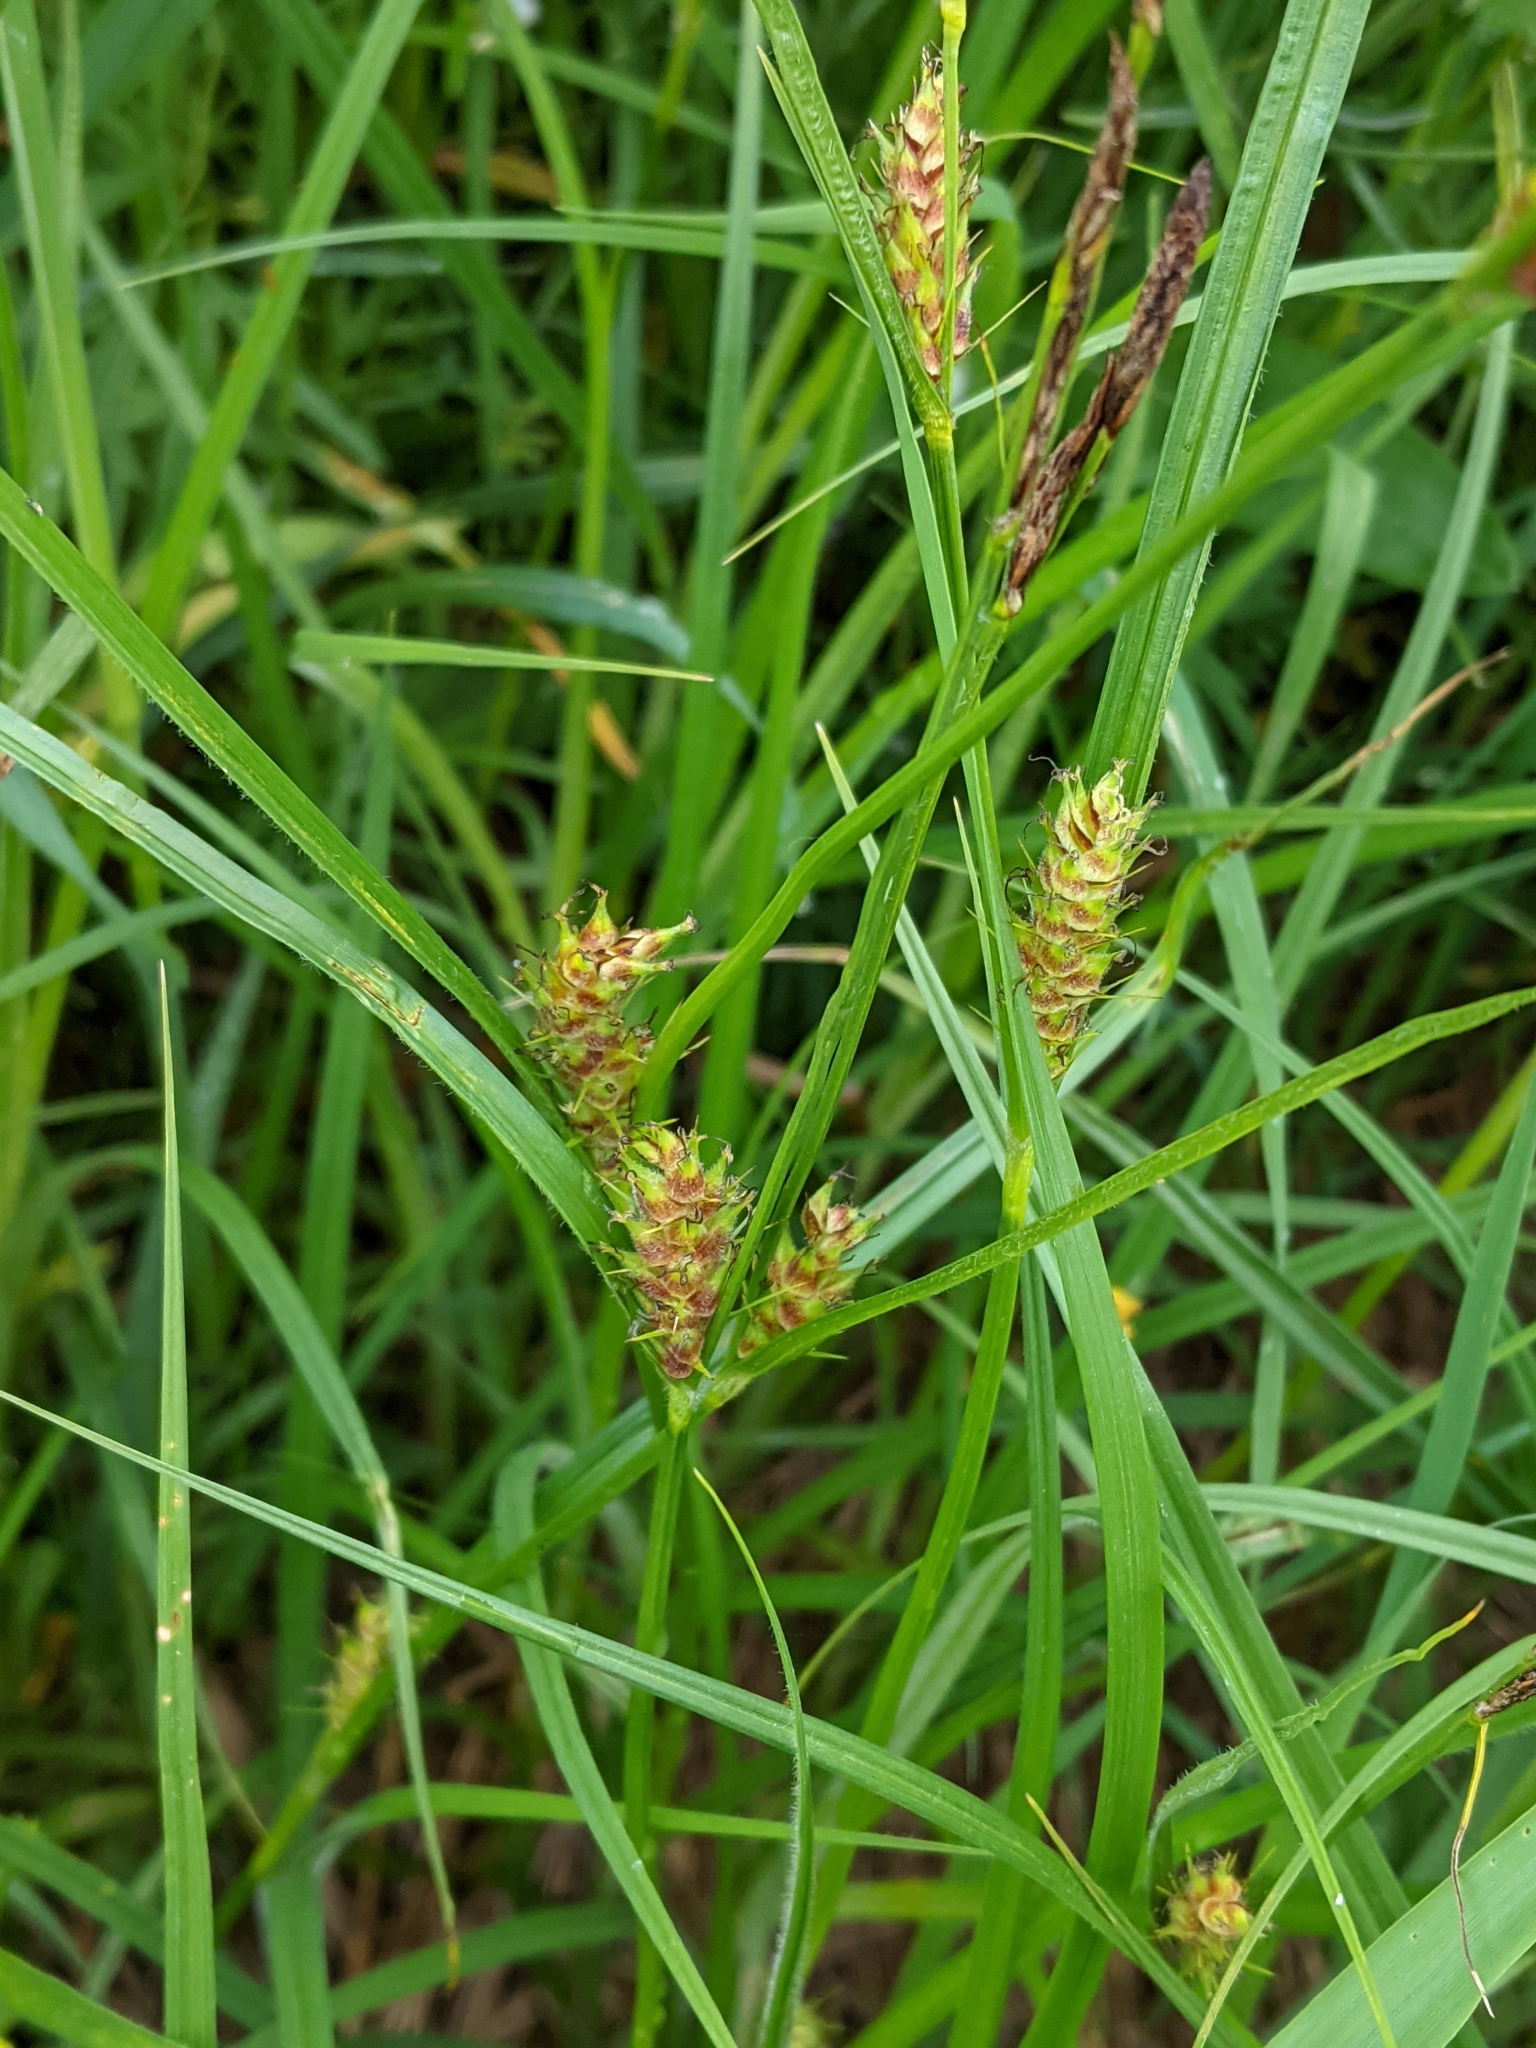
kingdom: Plantae
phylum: Tracheophyta
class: Liliopsida
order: Poales
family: Cyperaceae
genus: Carex
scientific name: Carex hirta
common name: Hairy sedge
